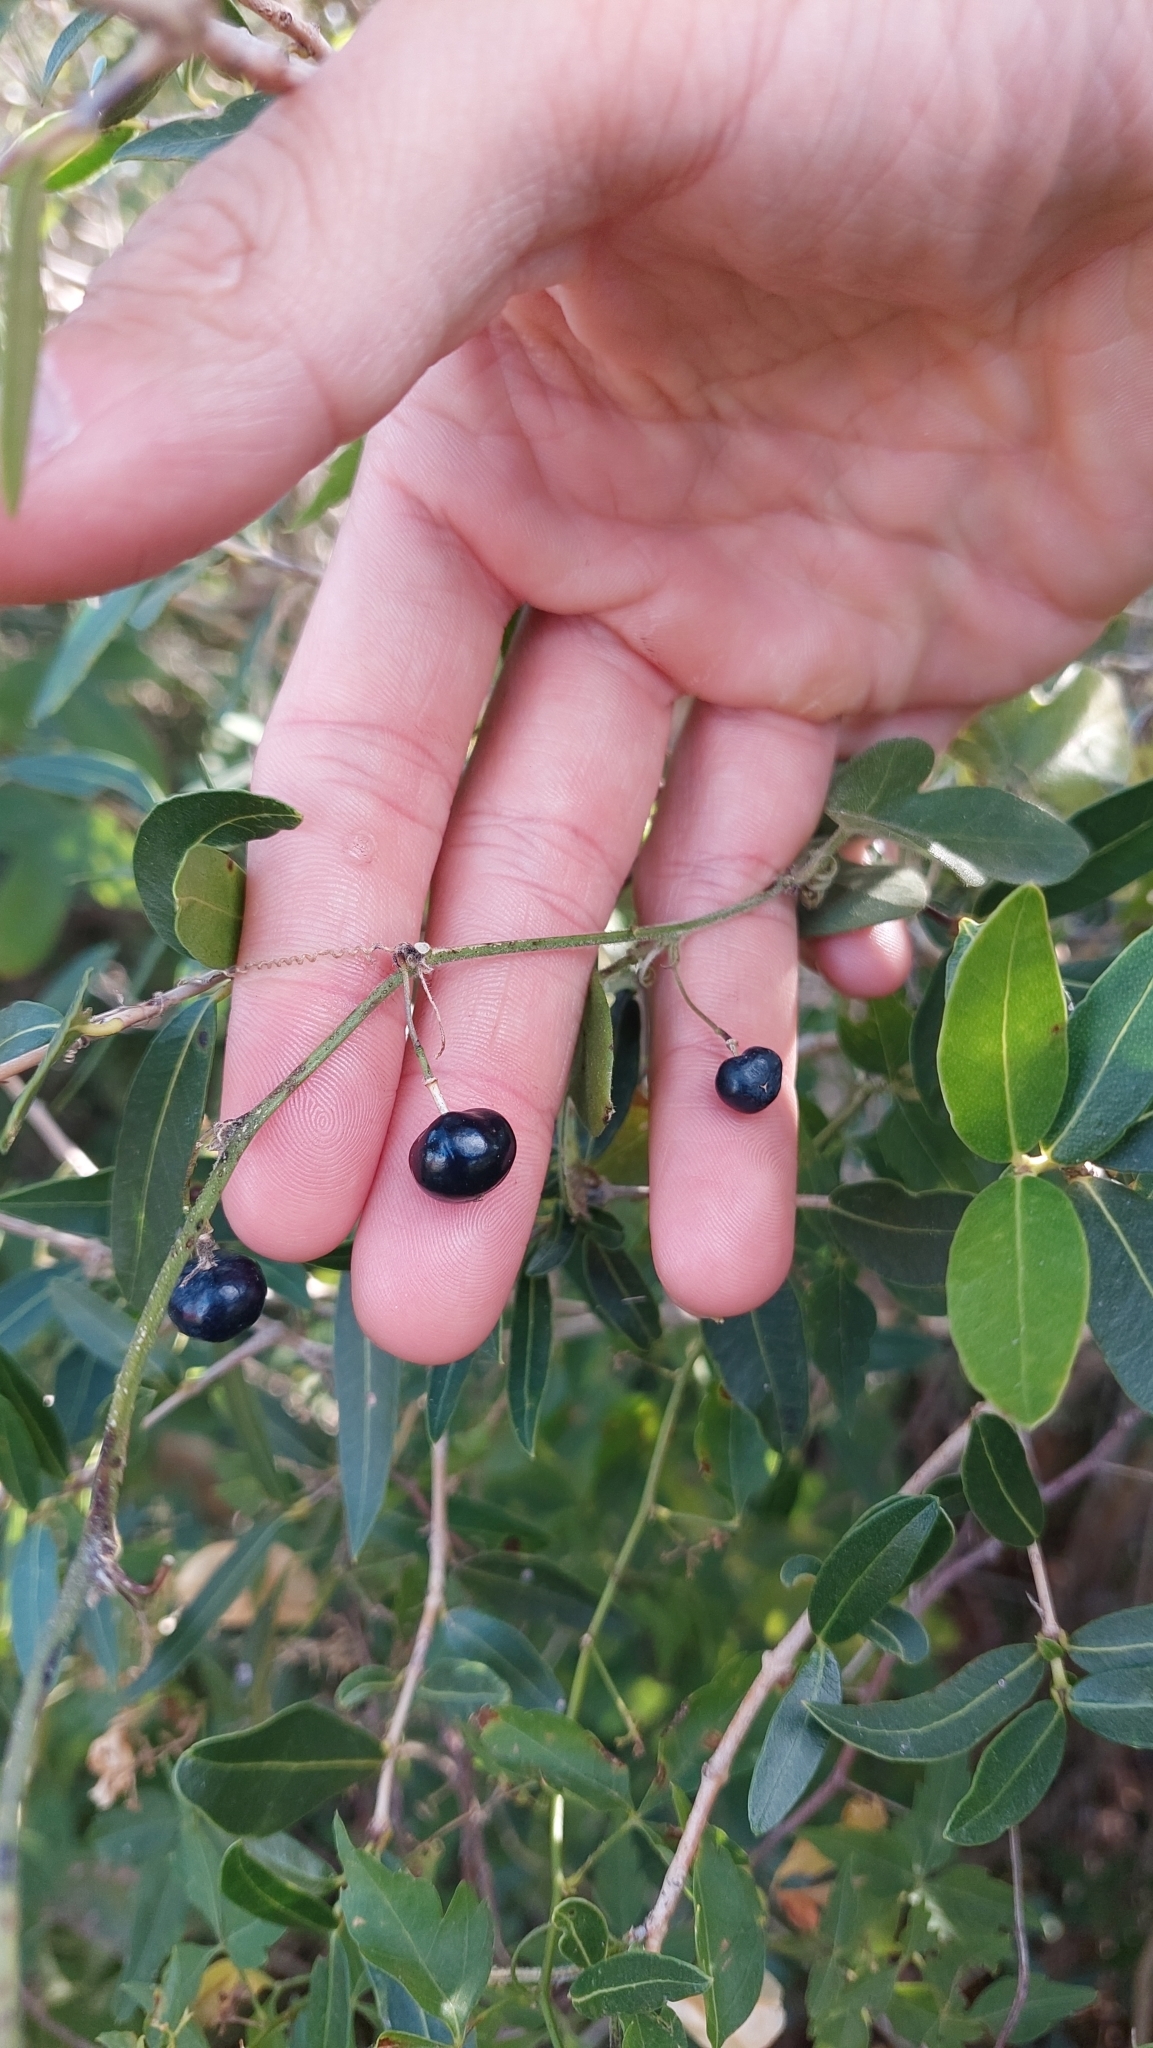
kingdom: Plantae
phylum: Tracheophyta
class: Magnoliopsida
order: Malpighiales
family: Passifloraceae
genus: Passiflora
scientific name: Passiflora suberosa
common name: Wild passionfruit
